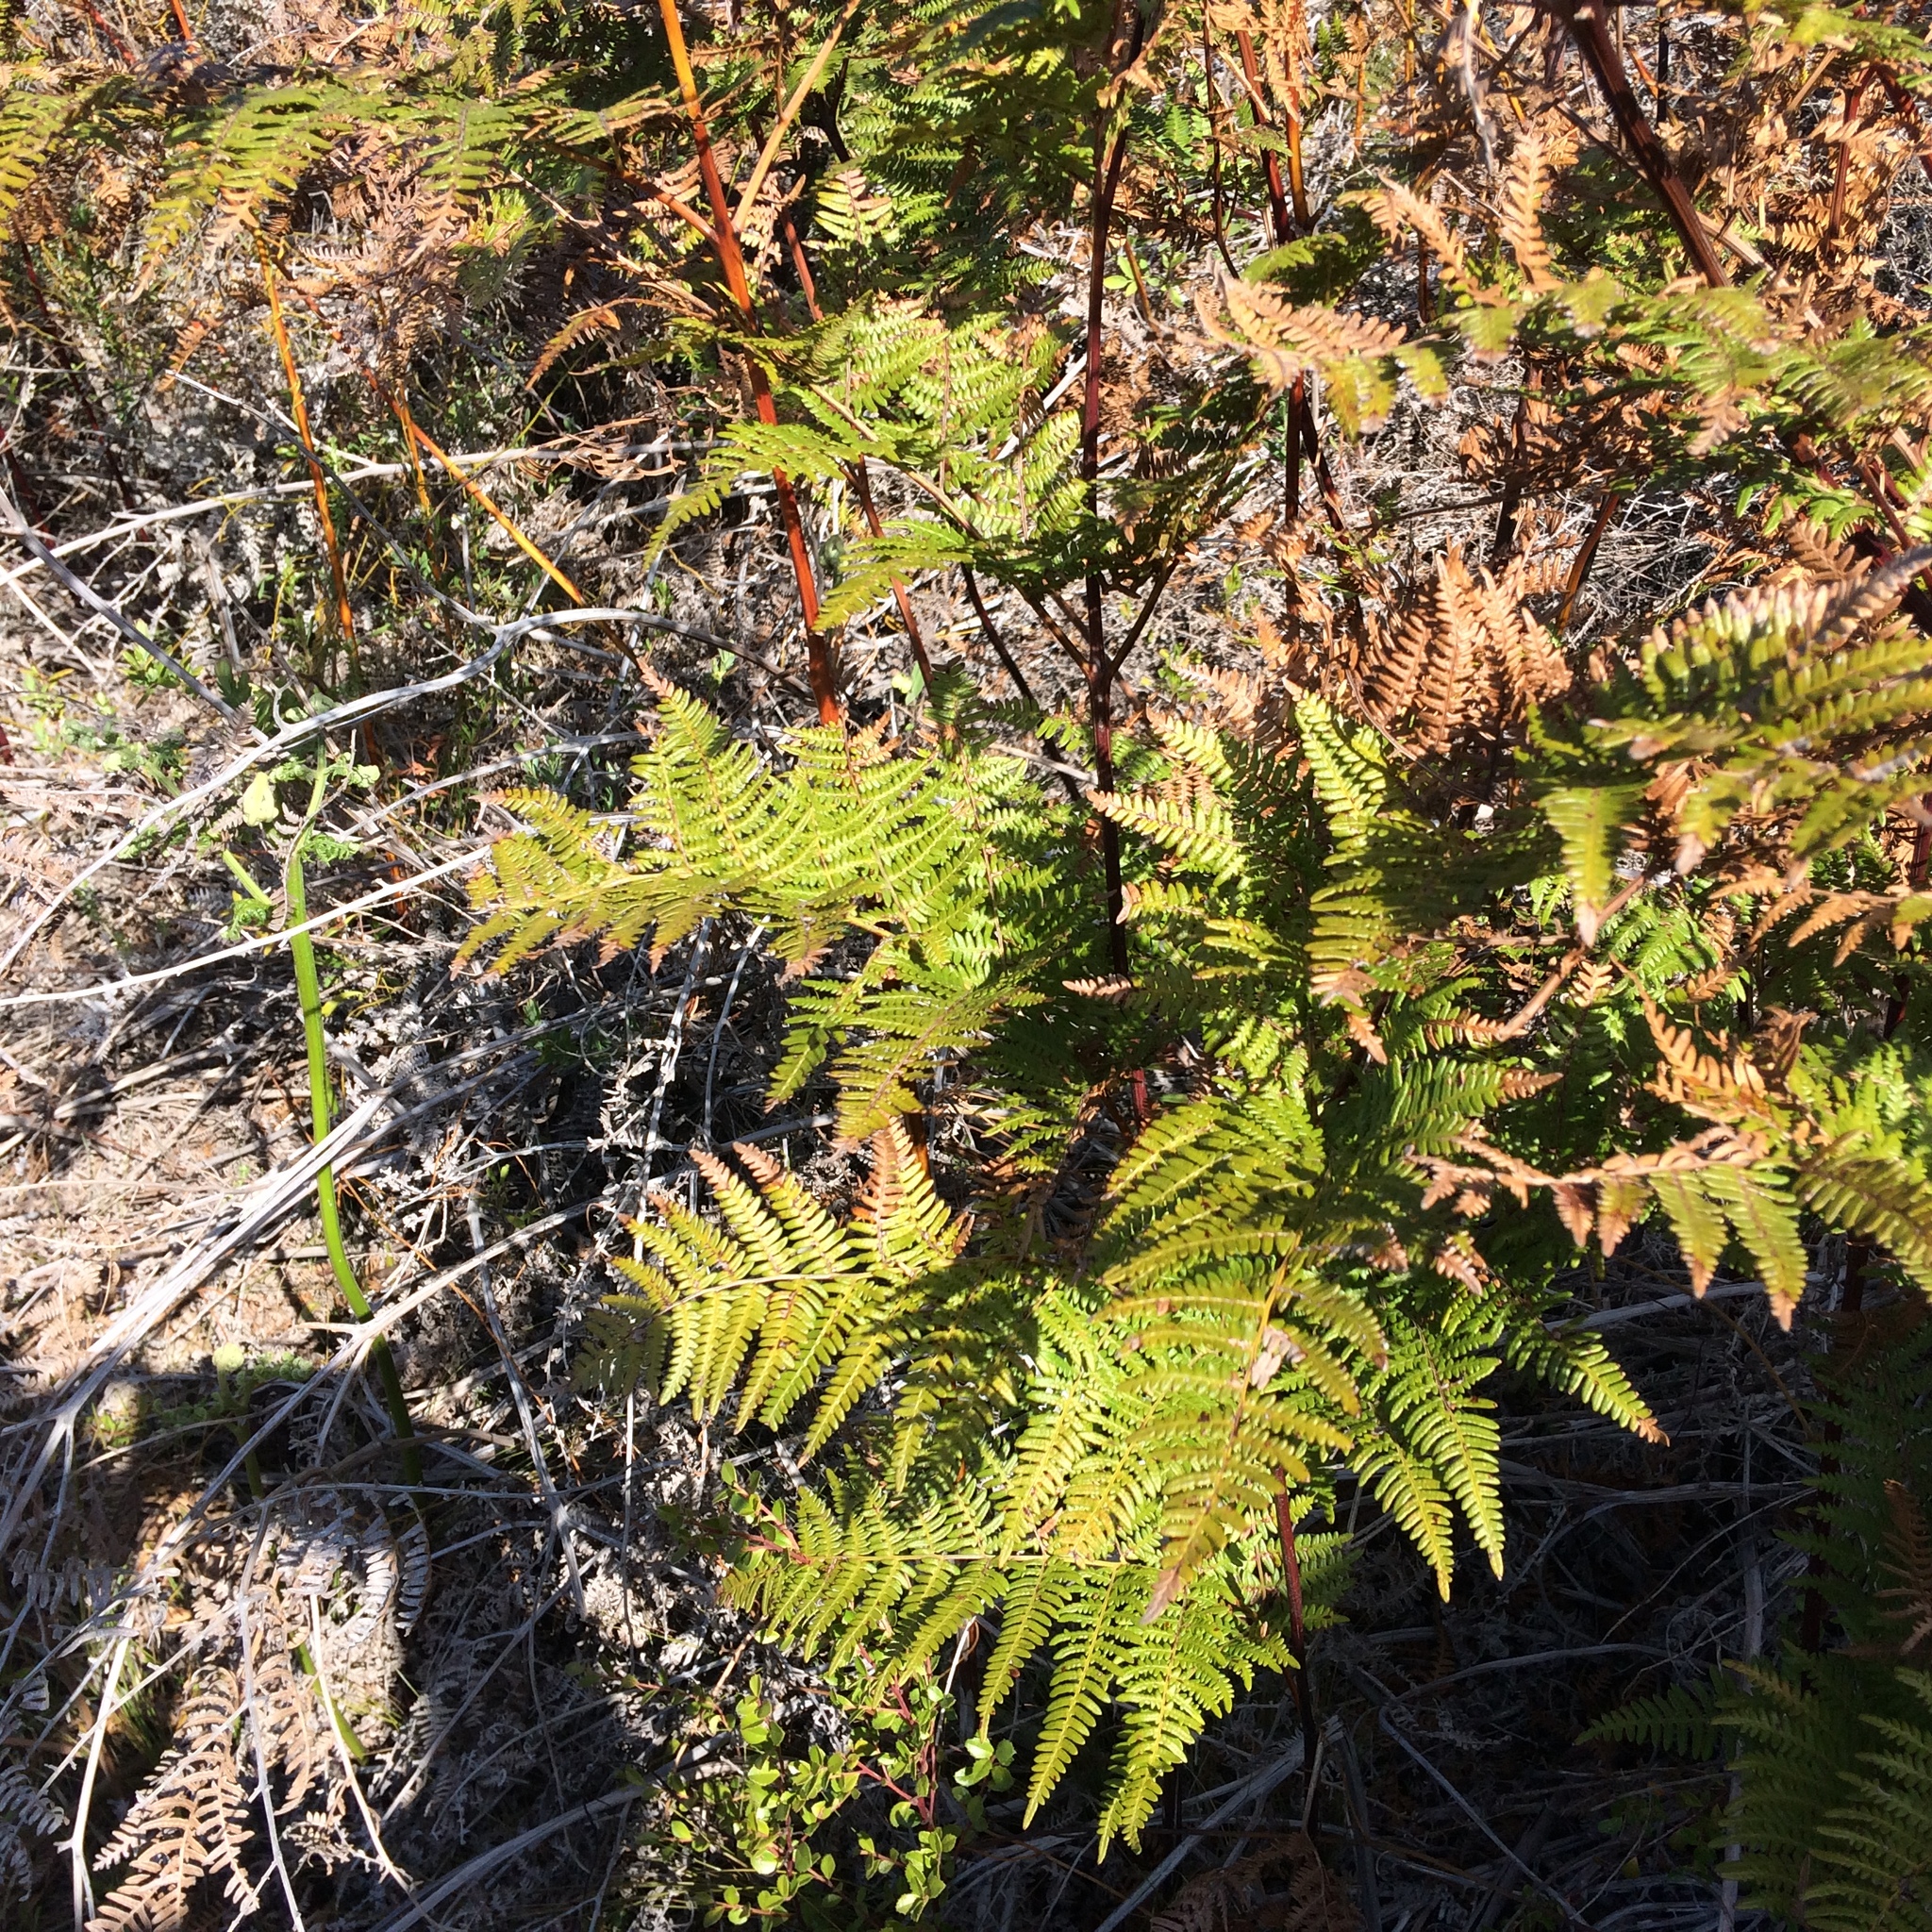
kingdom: Plantae
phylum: Tracheophyta
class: Polypodiopsida
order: Polypodiales
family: Dennstaedtiaceae
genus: Pteridium
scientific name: Pteridium aquilinum
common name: Bracken
